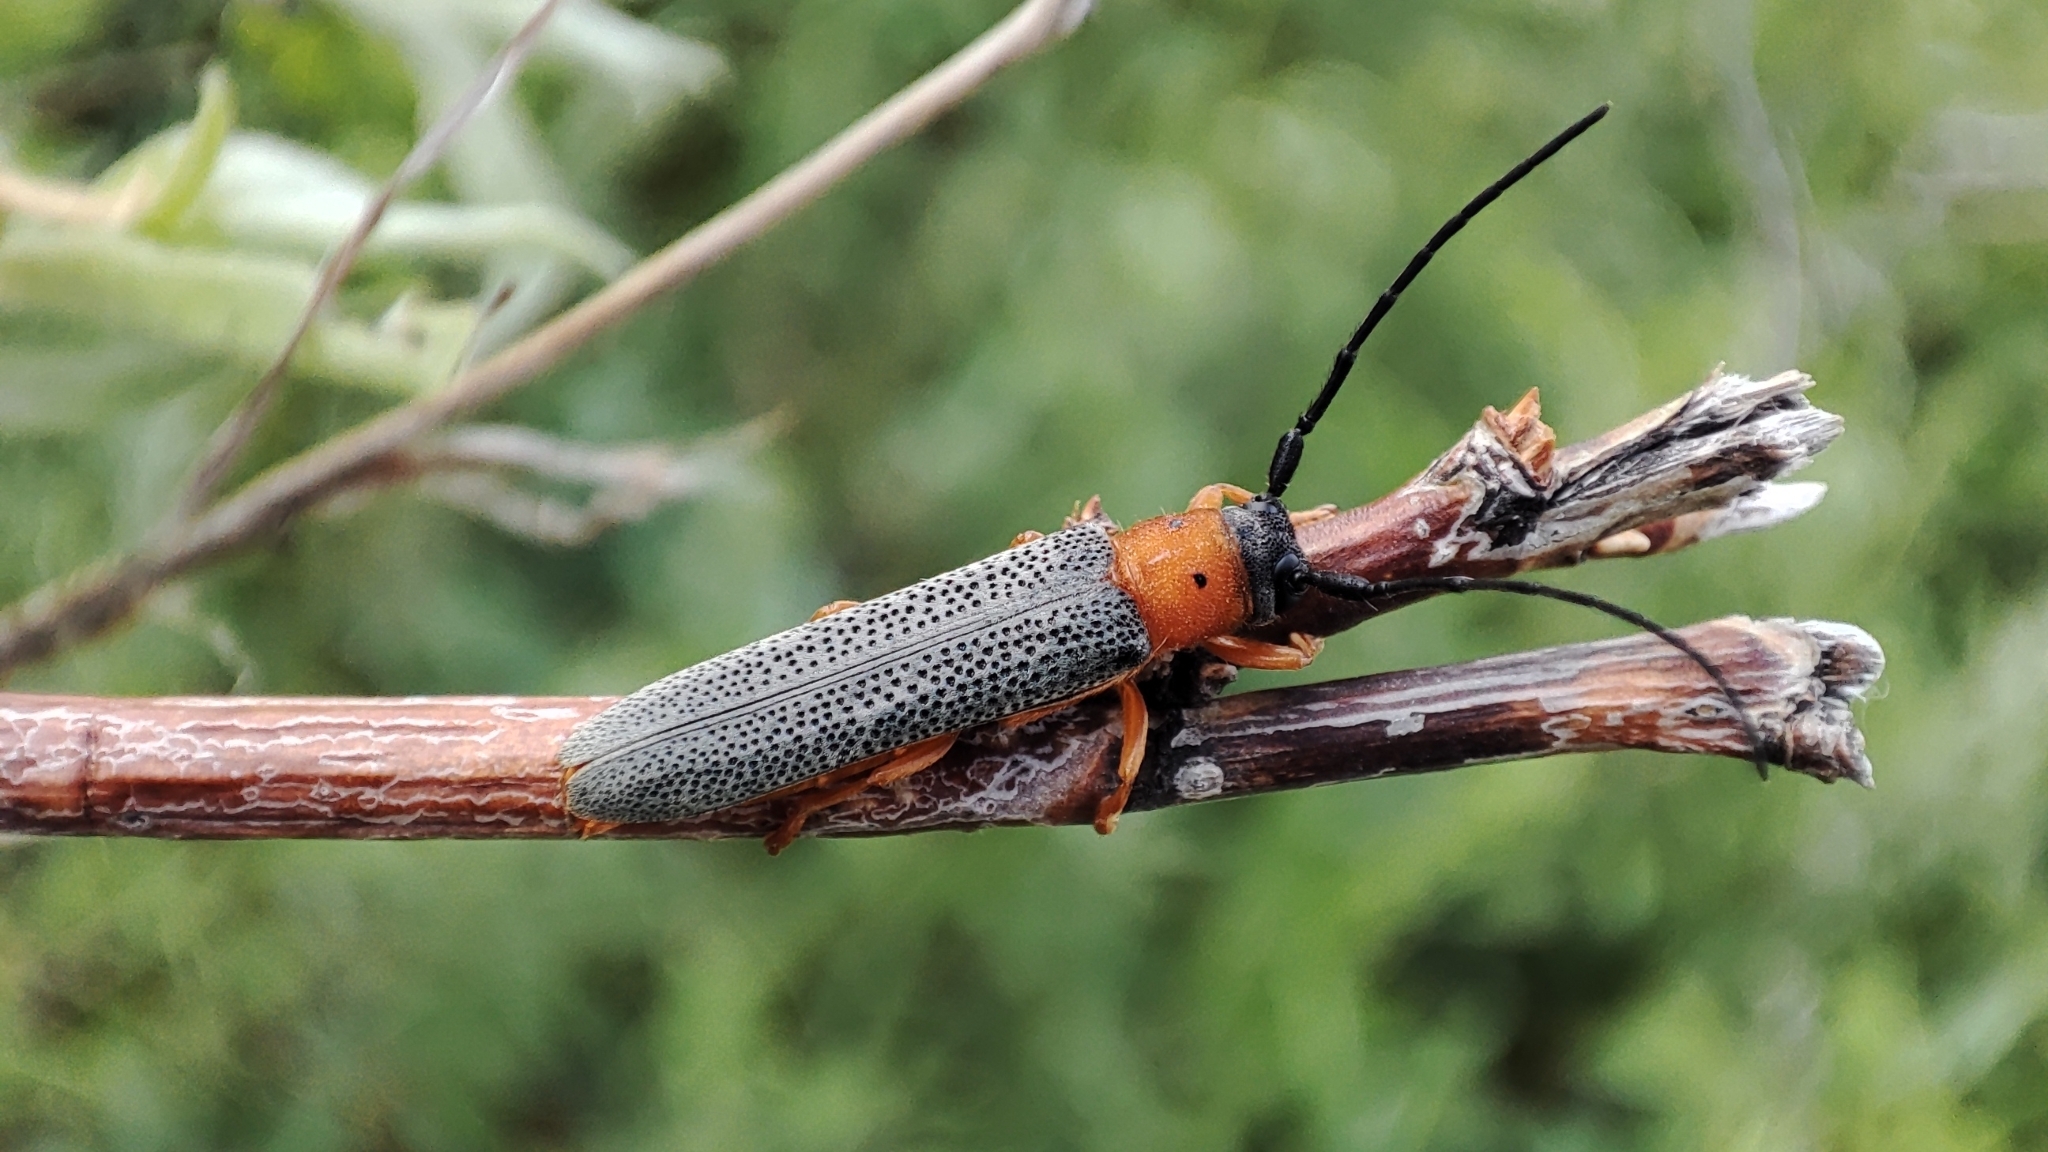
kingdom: Animalia
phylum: Arthropoda
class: Insecta
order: Coleoptera
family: Cerambycidae
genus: Oberea
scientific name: Oberea oculata
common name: Eyed longhorn beetle
